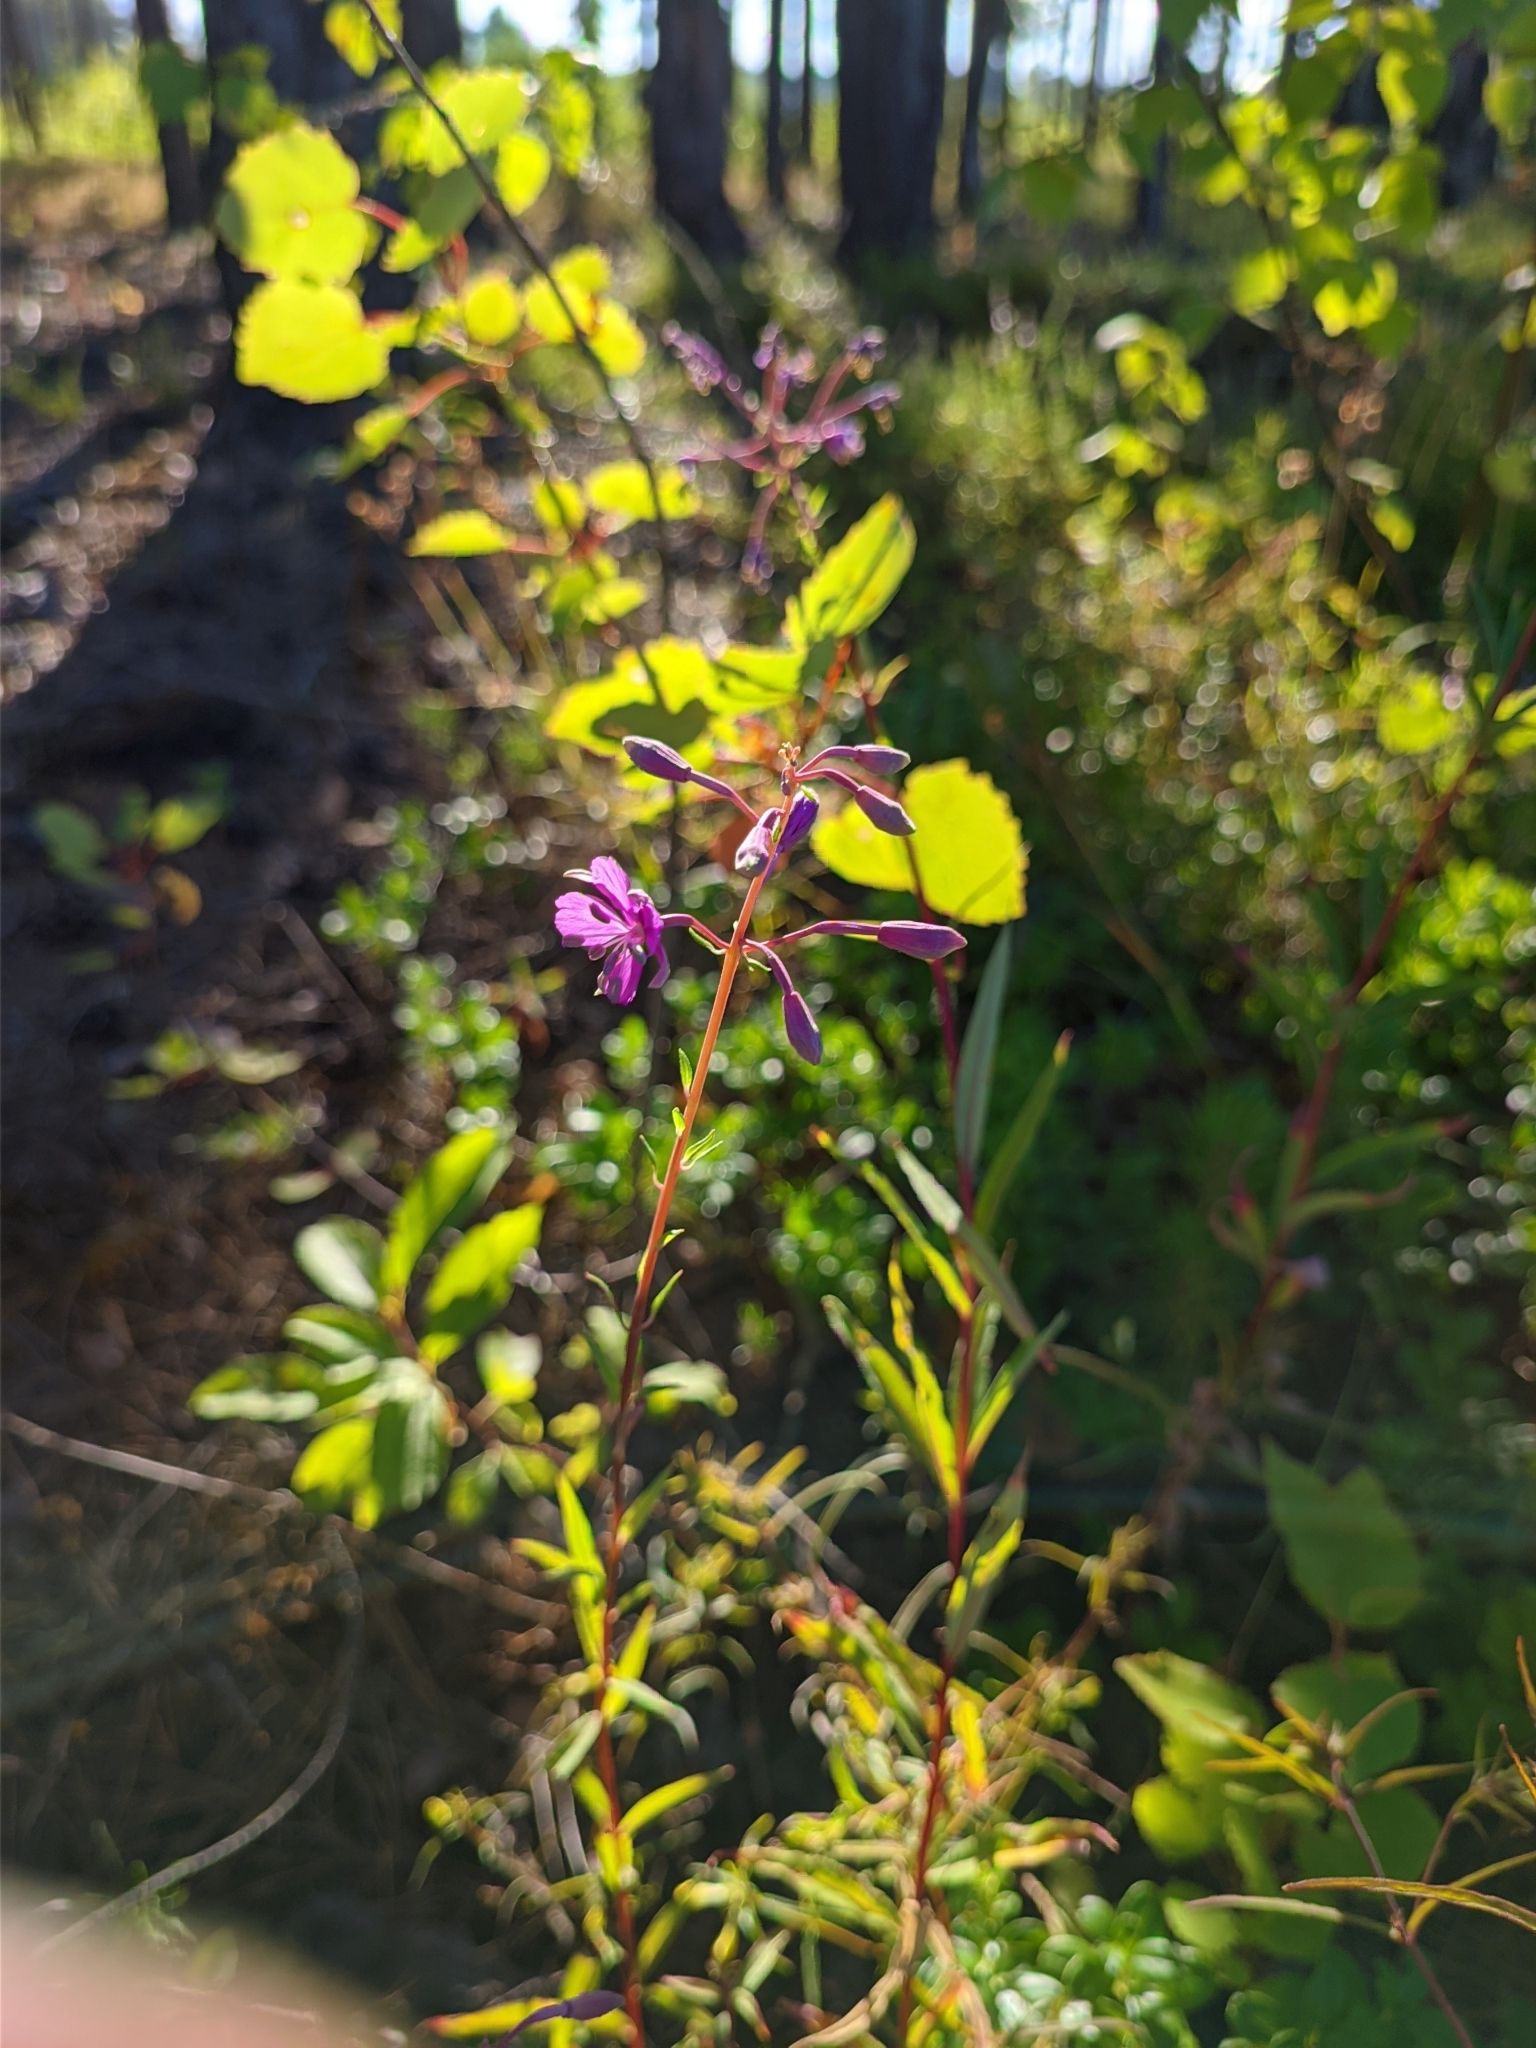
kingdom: Plantae
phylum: Tracheophyta
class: Magnoliopsida
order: Myrtales
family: Onagraceae
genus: Chamaenerion
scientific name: Chamaenerion angustifolium
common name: Fireweed
